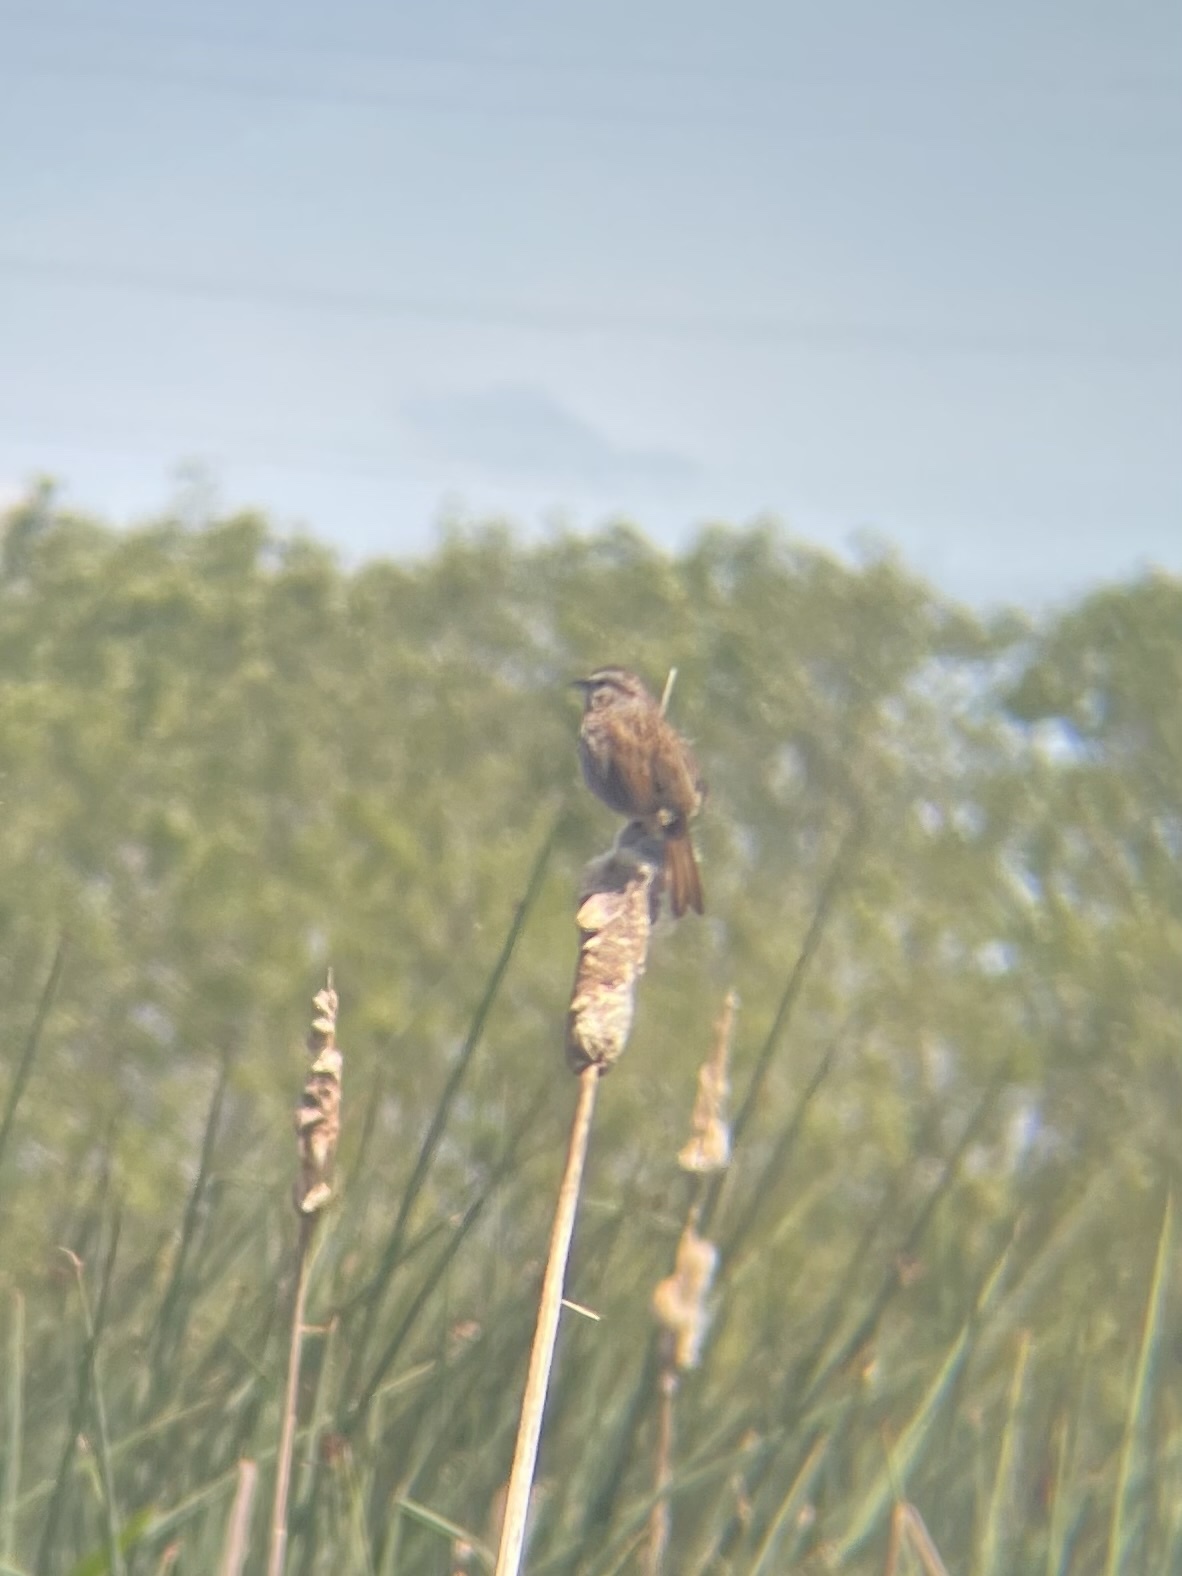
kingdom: Animalia
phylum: Chordata
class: Aves
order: Passeriformes
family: Passerellidae
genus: Melospiza
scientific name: Melospiza melodia
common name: Song sparrow
